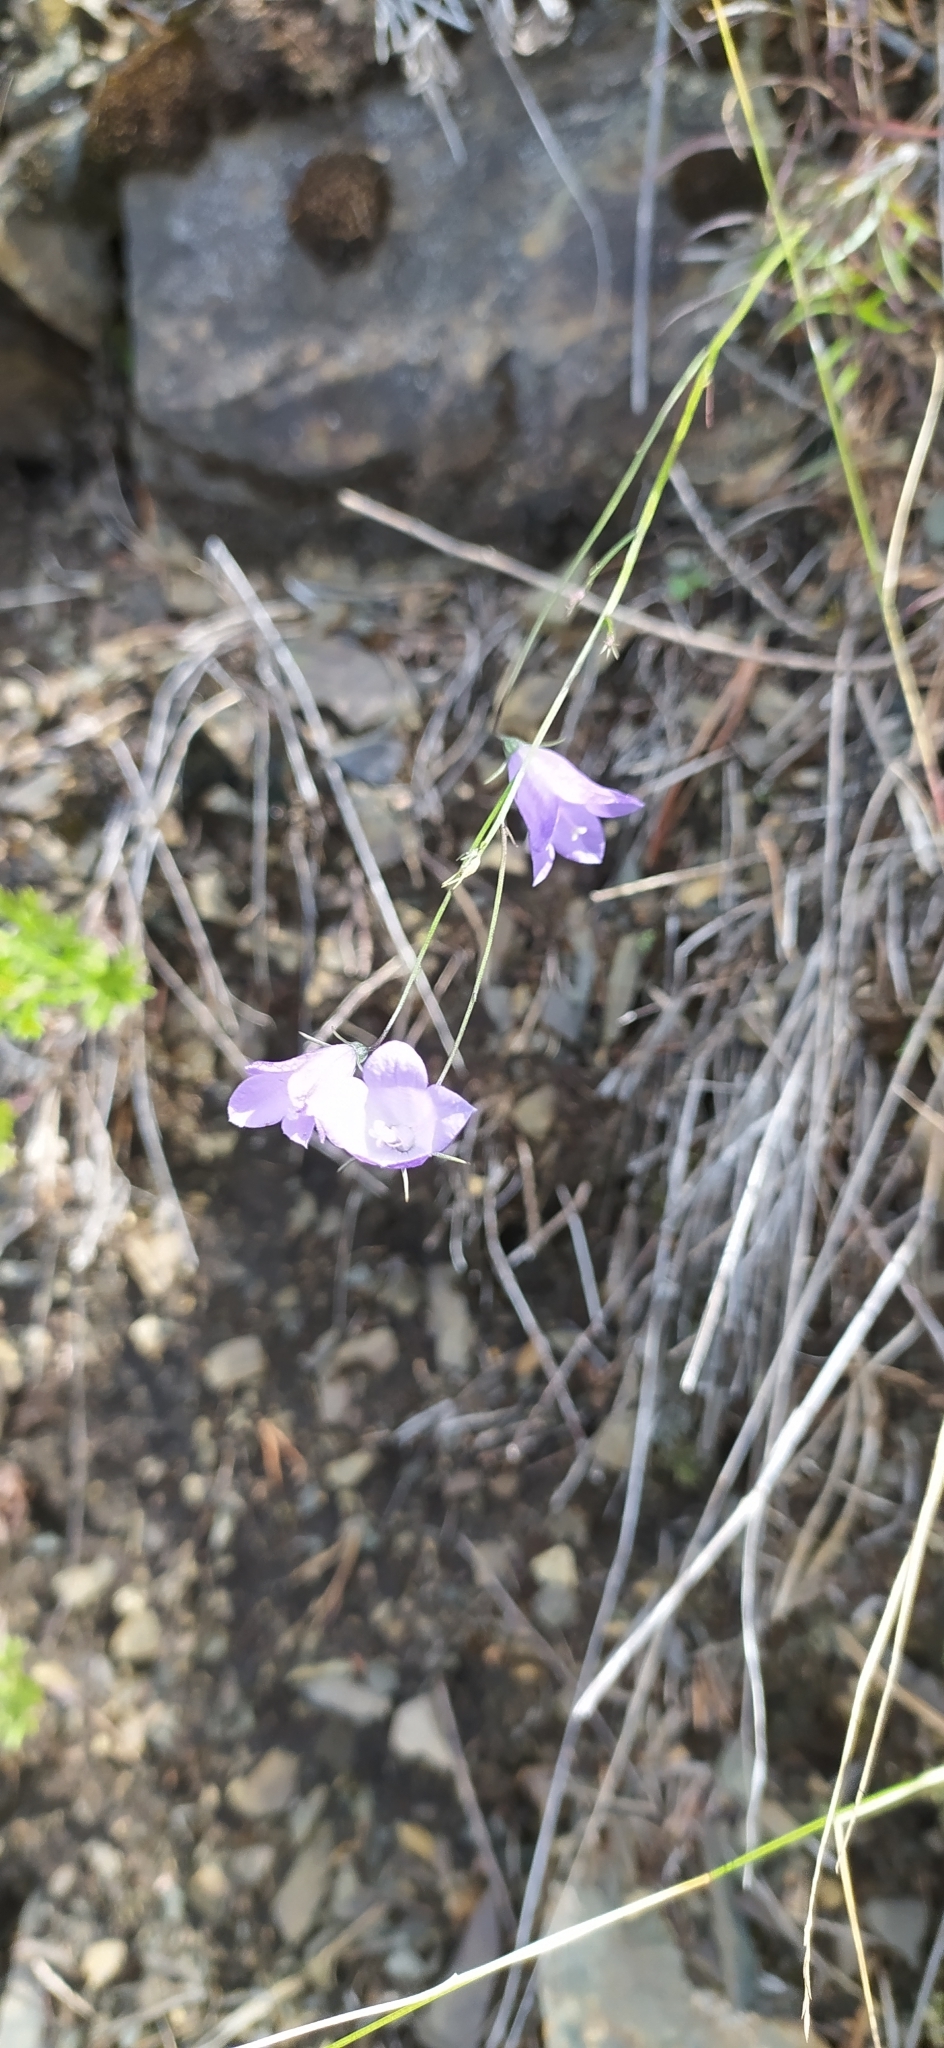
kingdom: Plantae
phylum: Tracheophyta
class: Magnoliopsida
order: Asterales
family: Campanulaceae
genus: Campanula
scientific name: Campanula rotundifolia
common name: Harebell
